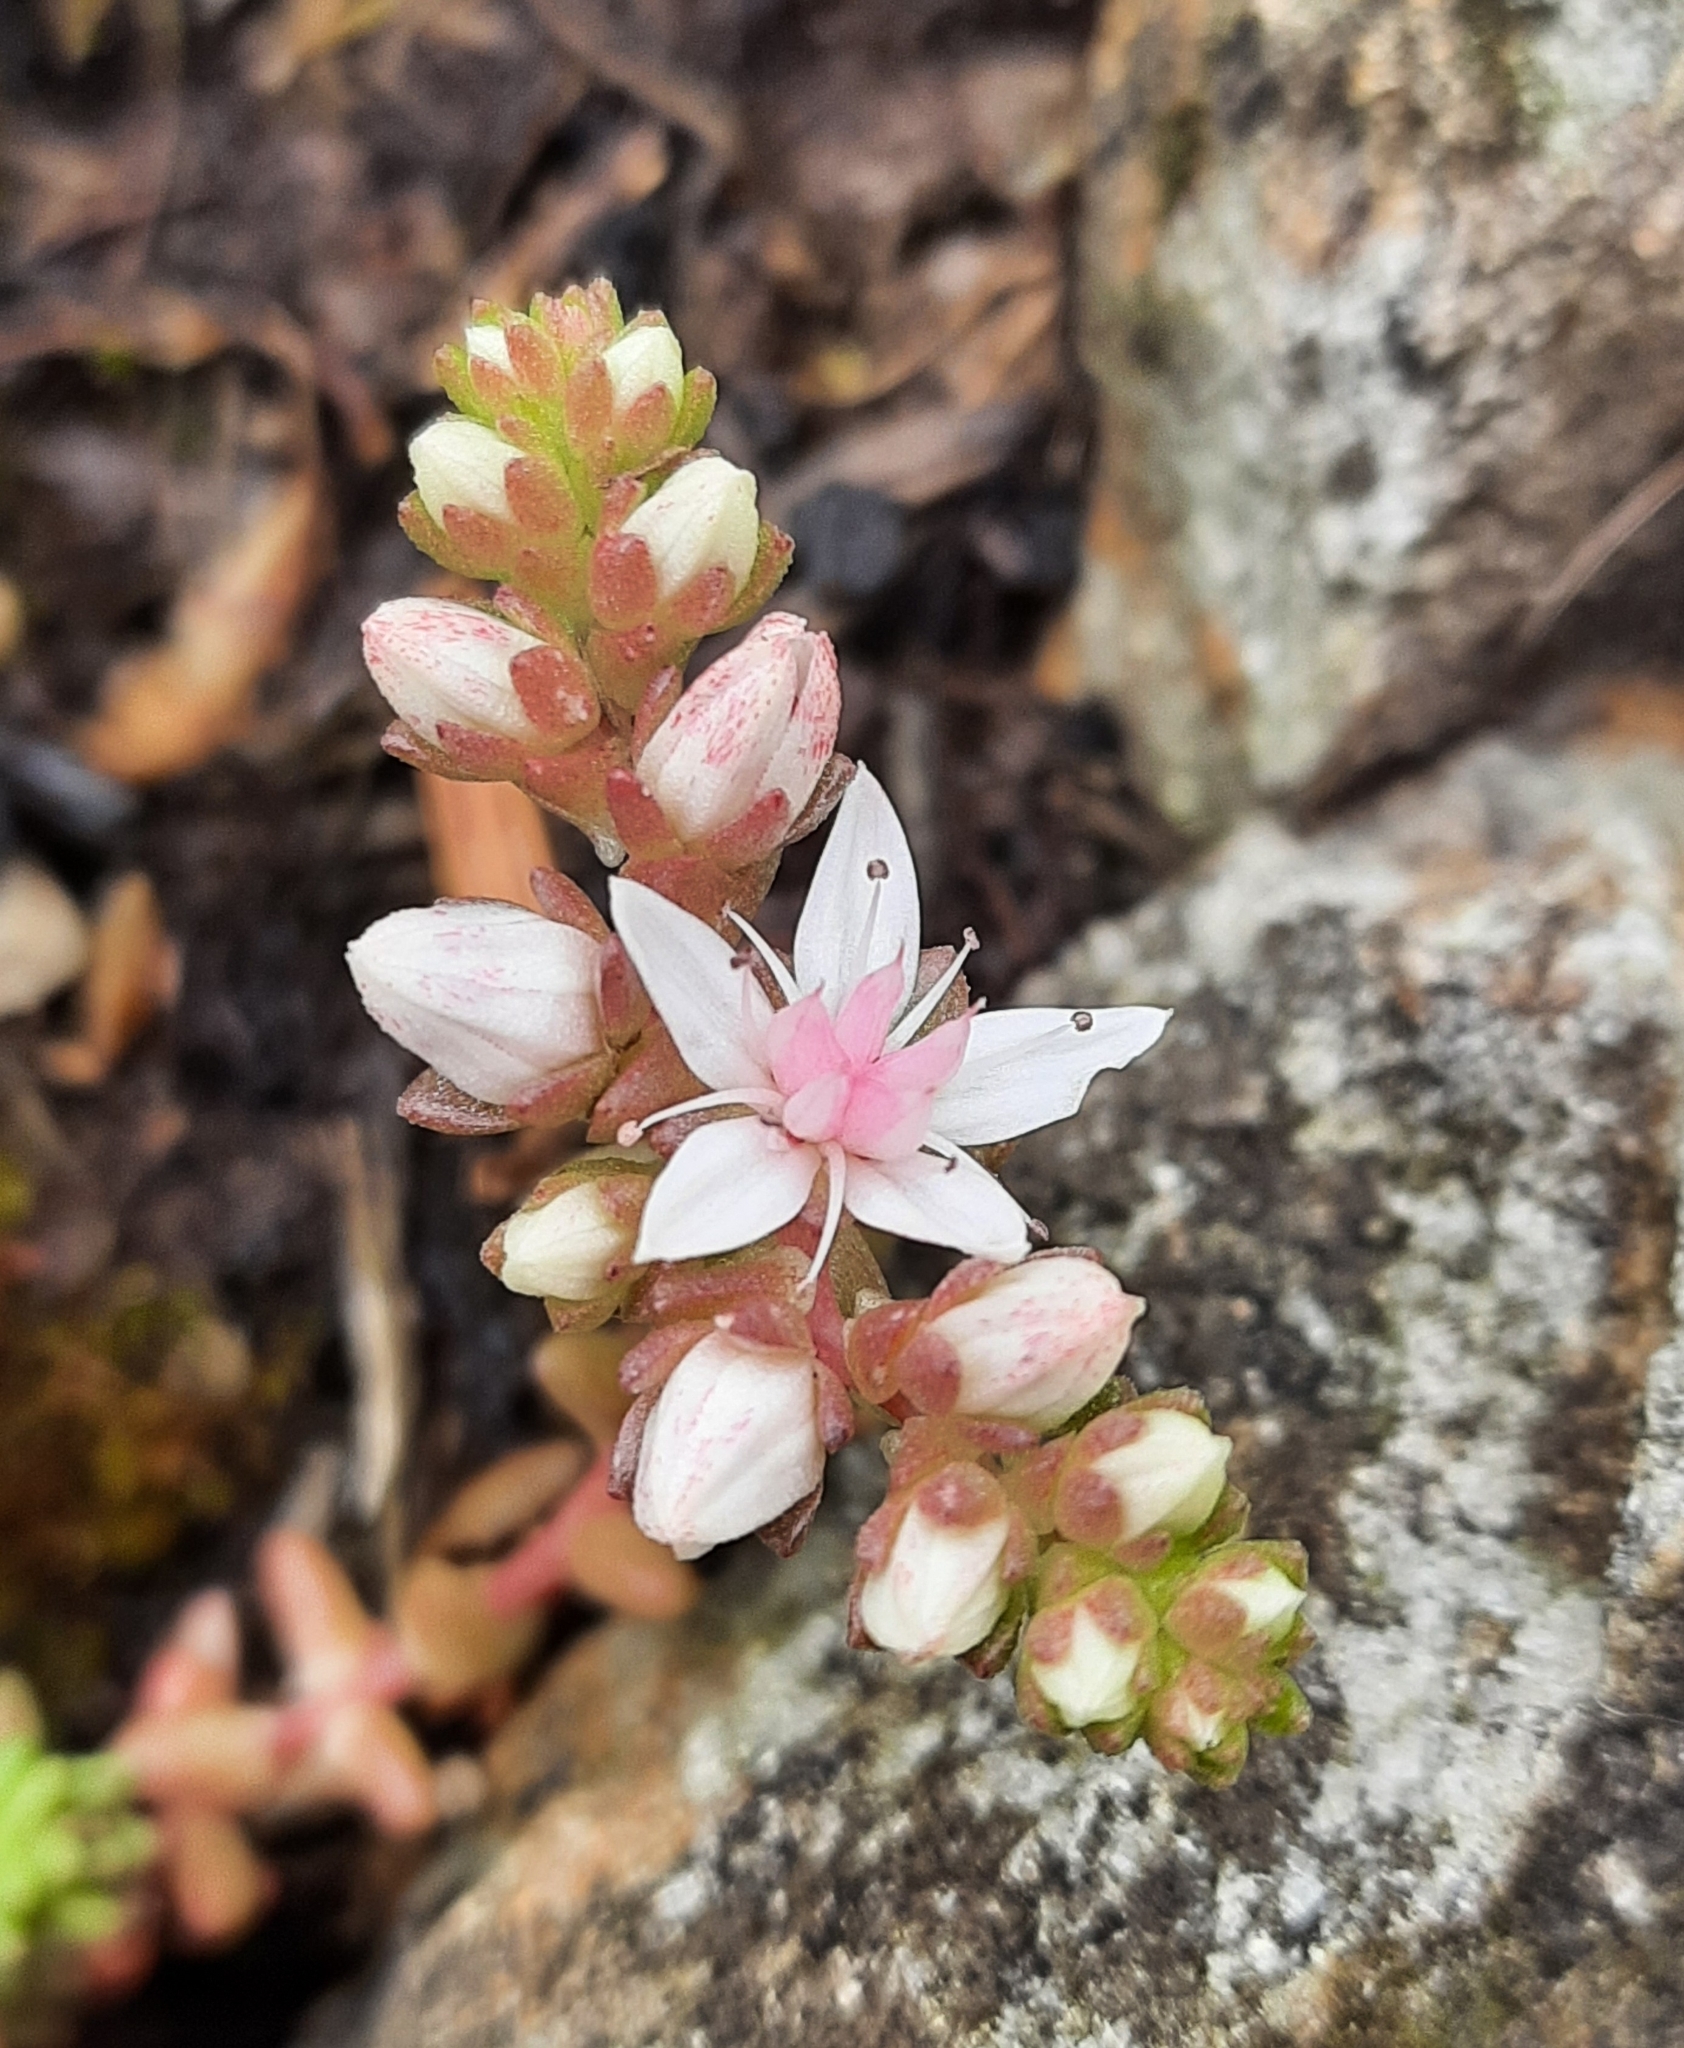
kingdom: Plantae
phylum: Tracheophyta
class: Magnoliopsida
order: Saxifragales
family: Crassulaceae
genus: Sedum
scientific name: Sedum anglicum
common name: English stonecrop
